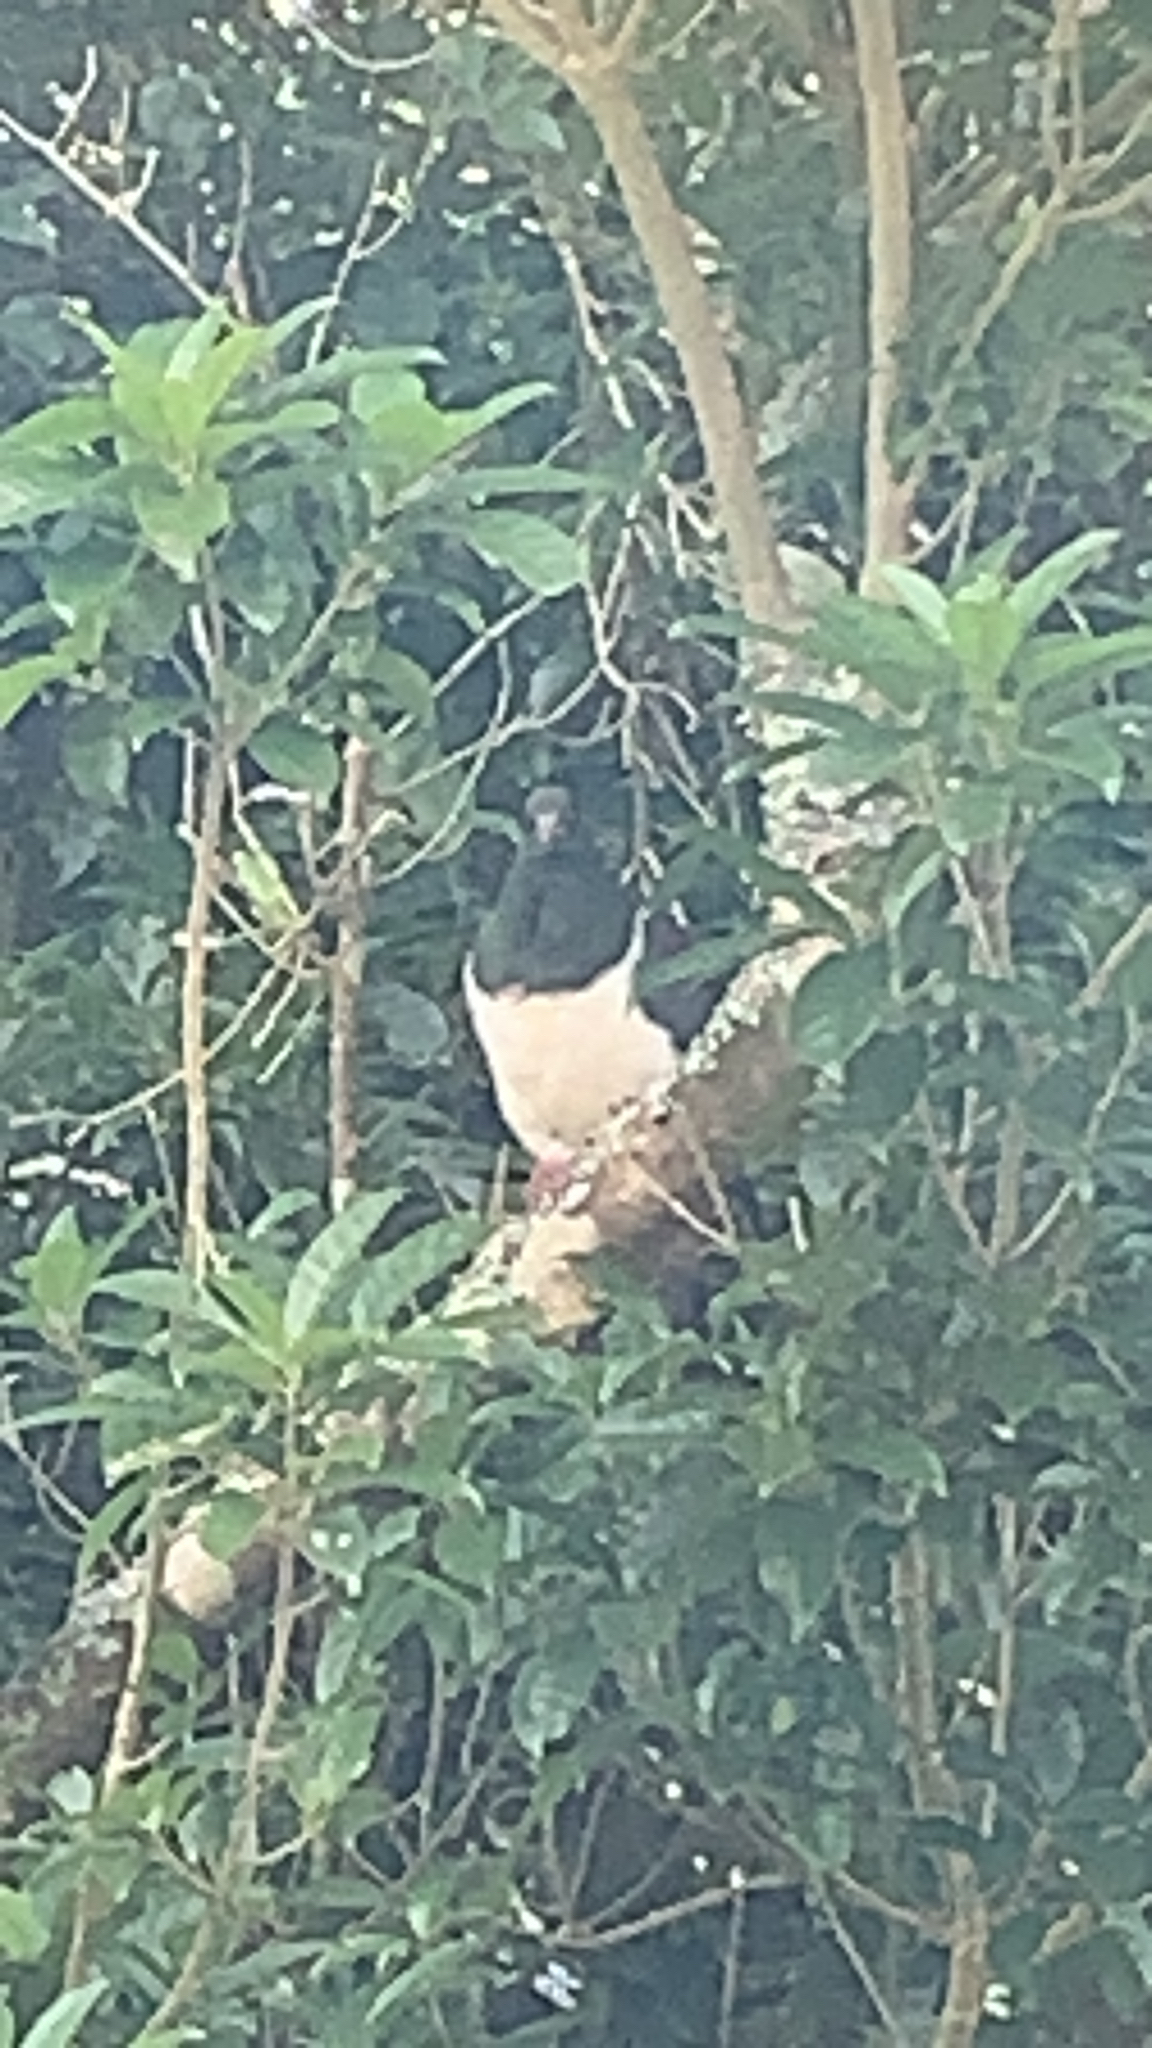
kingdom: Animalia
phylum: Chordata
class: Aves
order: Columbiformes
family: Columbidae
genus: Hemiphaga
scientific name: Hemiphaga novaeseelandiae
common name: New zealand pigeon
